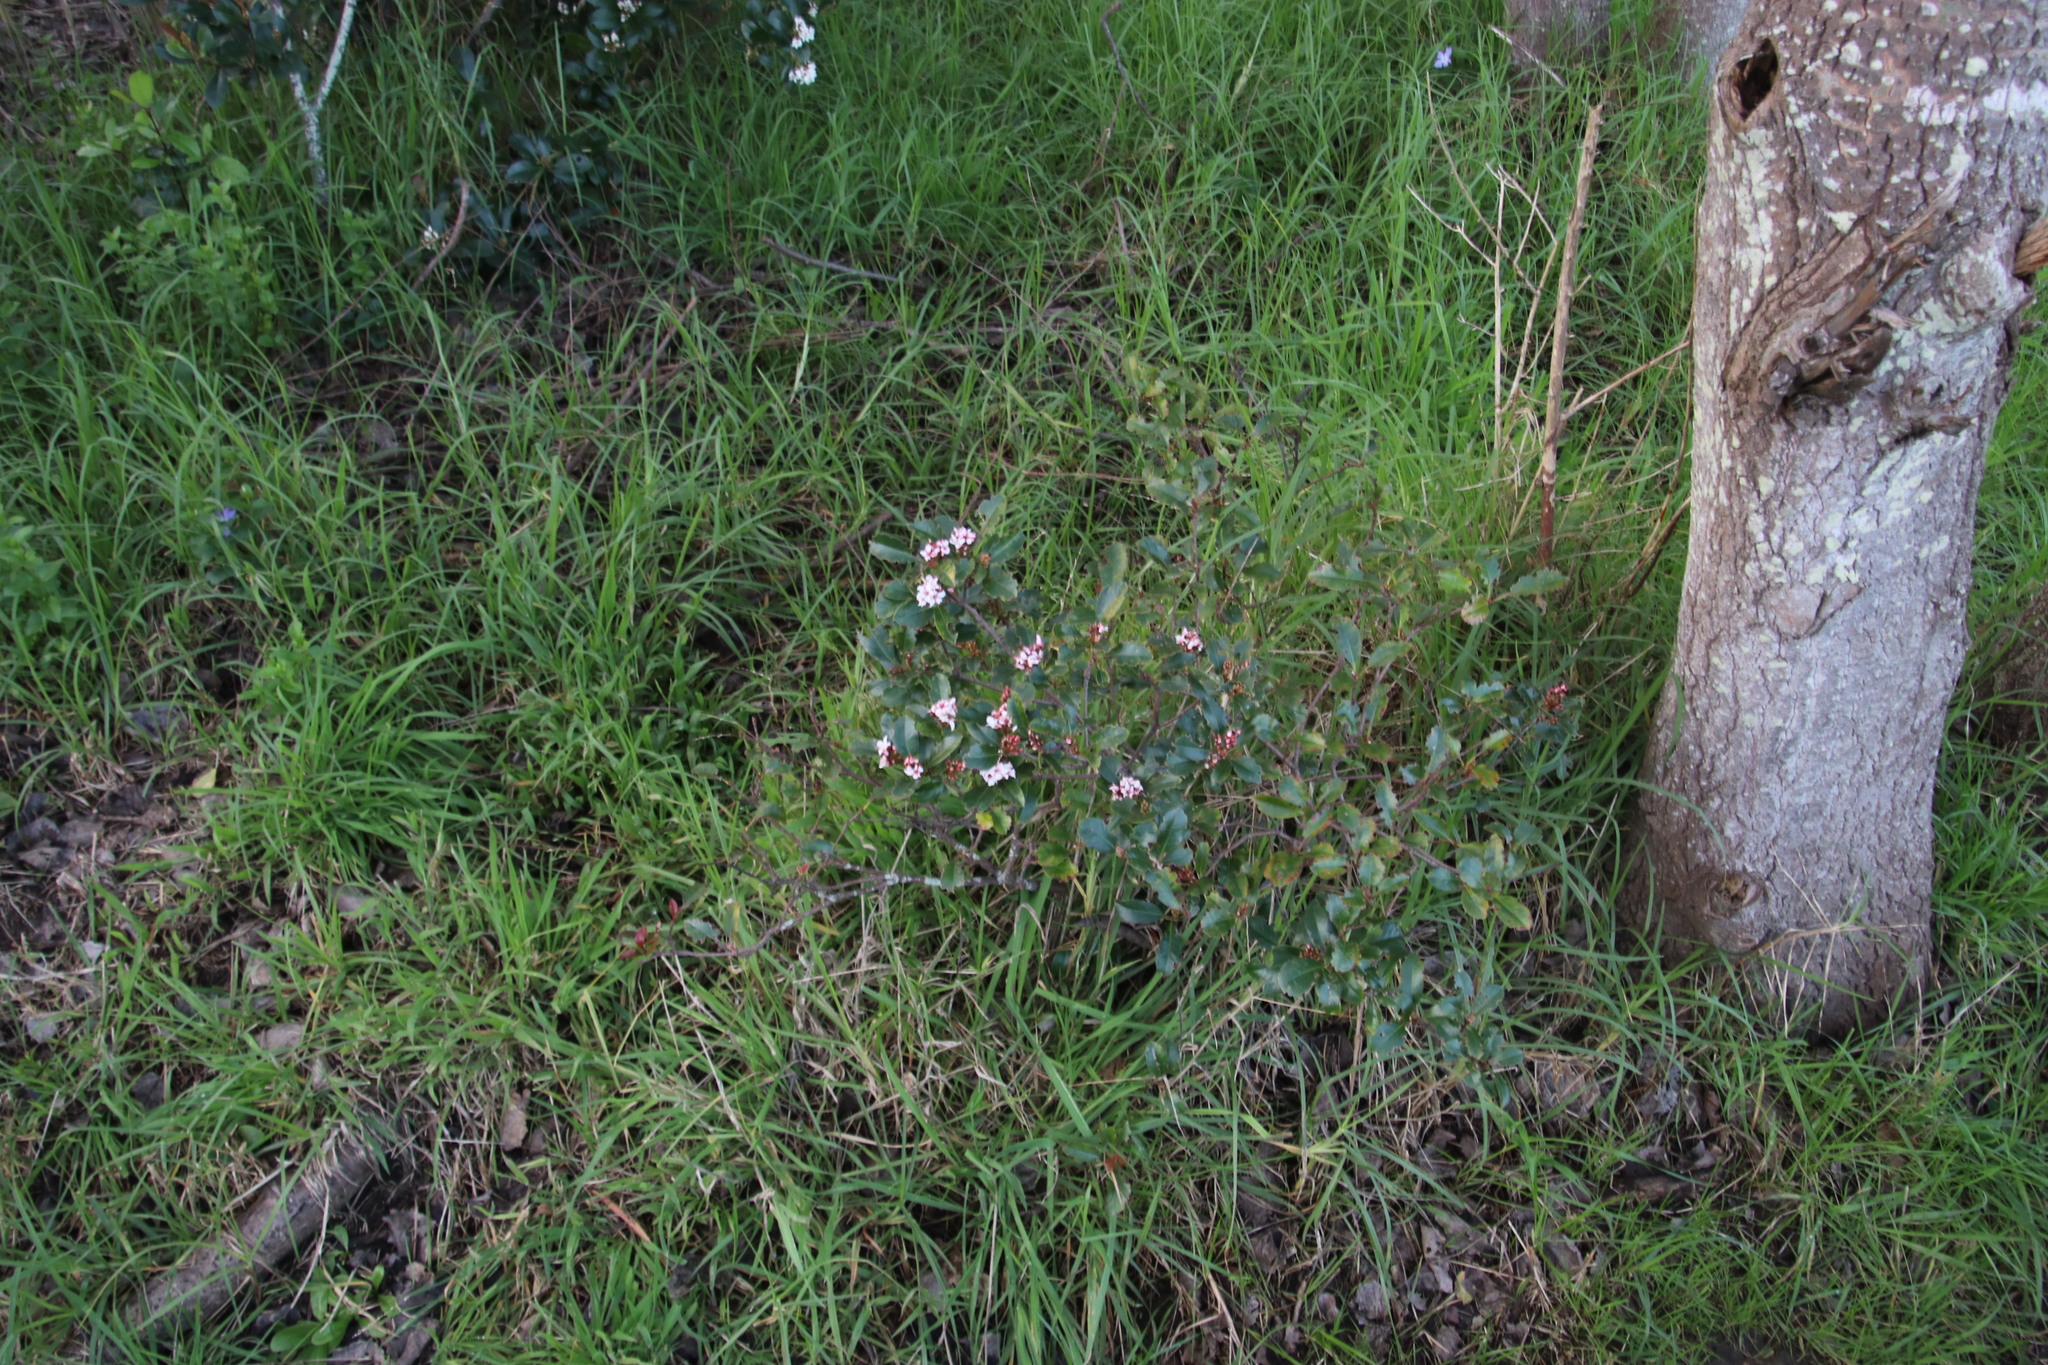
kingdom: Plantae
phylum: Tracheophyta
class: Magnoliopsida
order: Rosales
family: Rosaceae
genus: Rhaphiolepis
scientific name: Rhaphiolepis indica
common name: India-hawthorn
